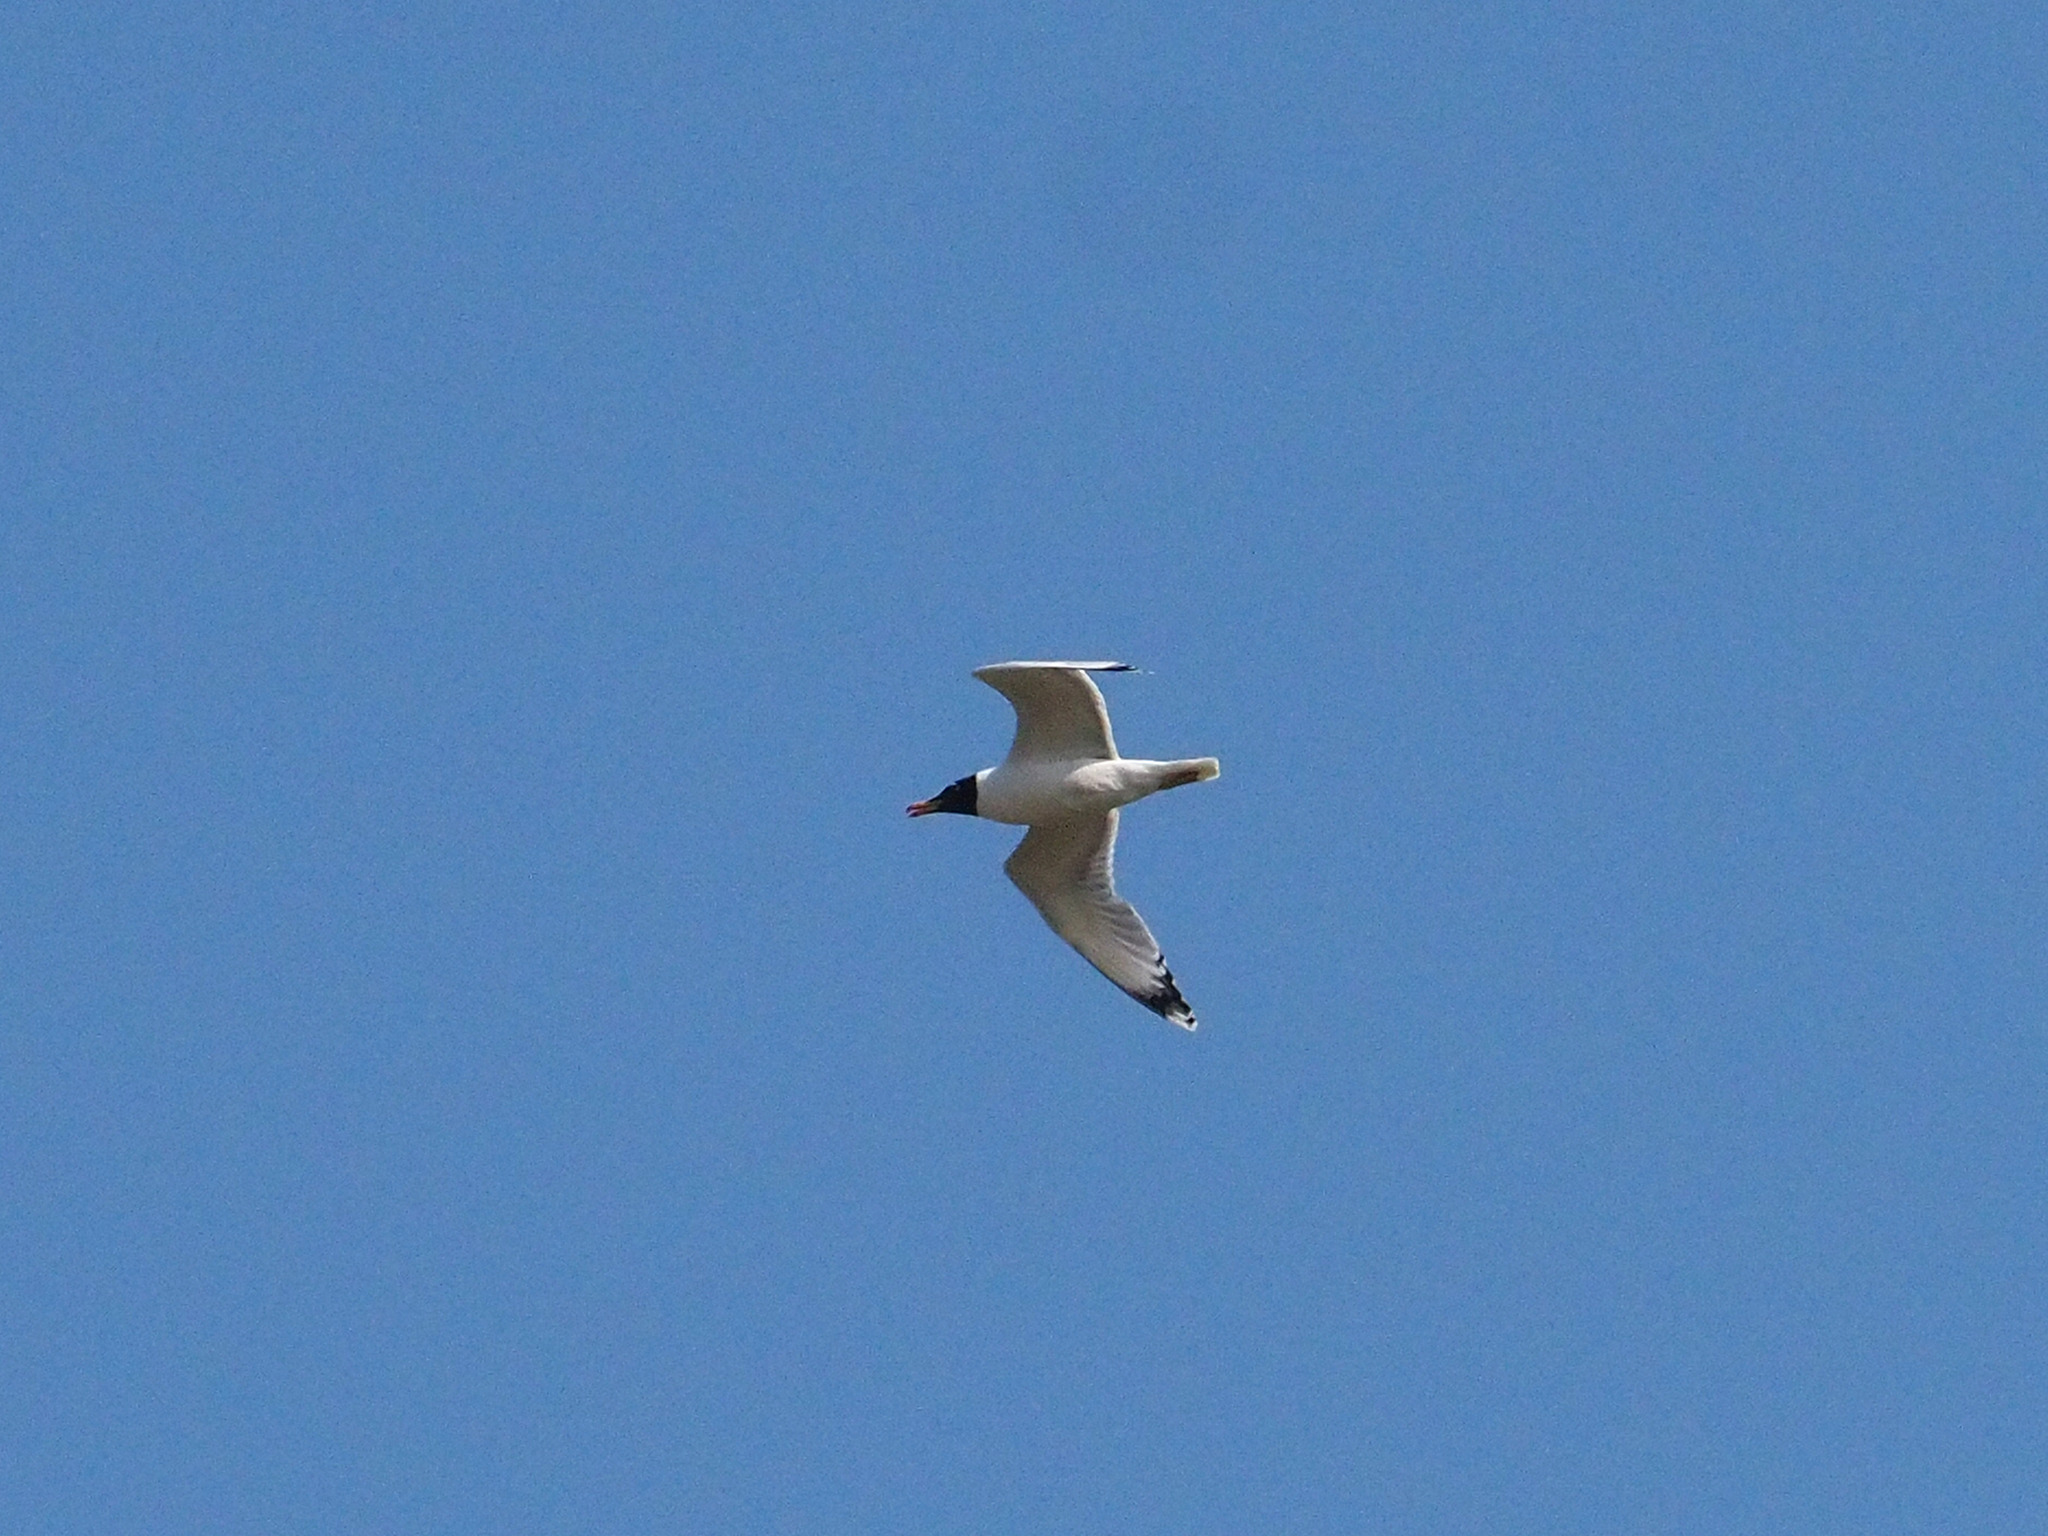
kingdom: Animalia
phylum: Chordata
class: Aves
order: Charadriiformes
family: Laridae
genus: Ichthyaetus
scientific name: Ichthyaetus ichthyaetus
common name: Pallas's gull
